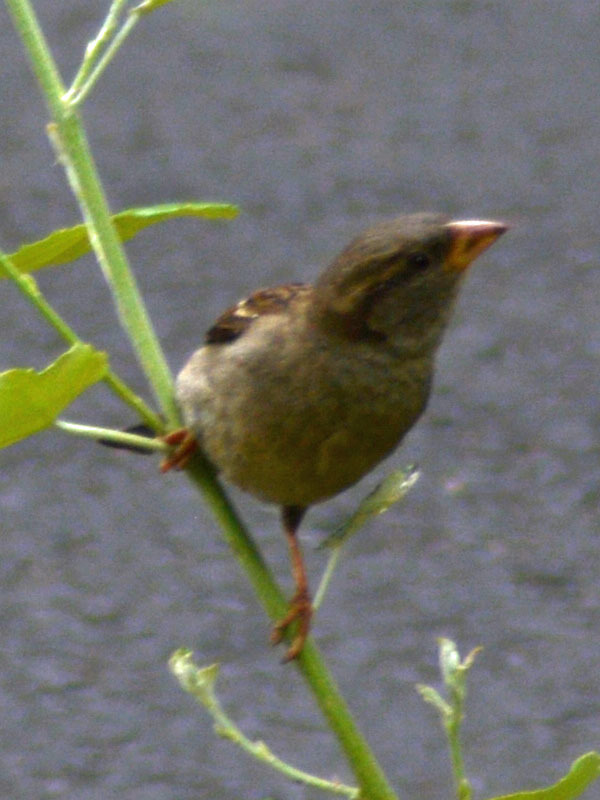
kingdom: Animalia
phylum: Chordata
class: Aves
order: Passeriformes
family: Passeridae
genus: Passer
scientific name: Passer domesticus
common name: House sparrow
